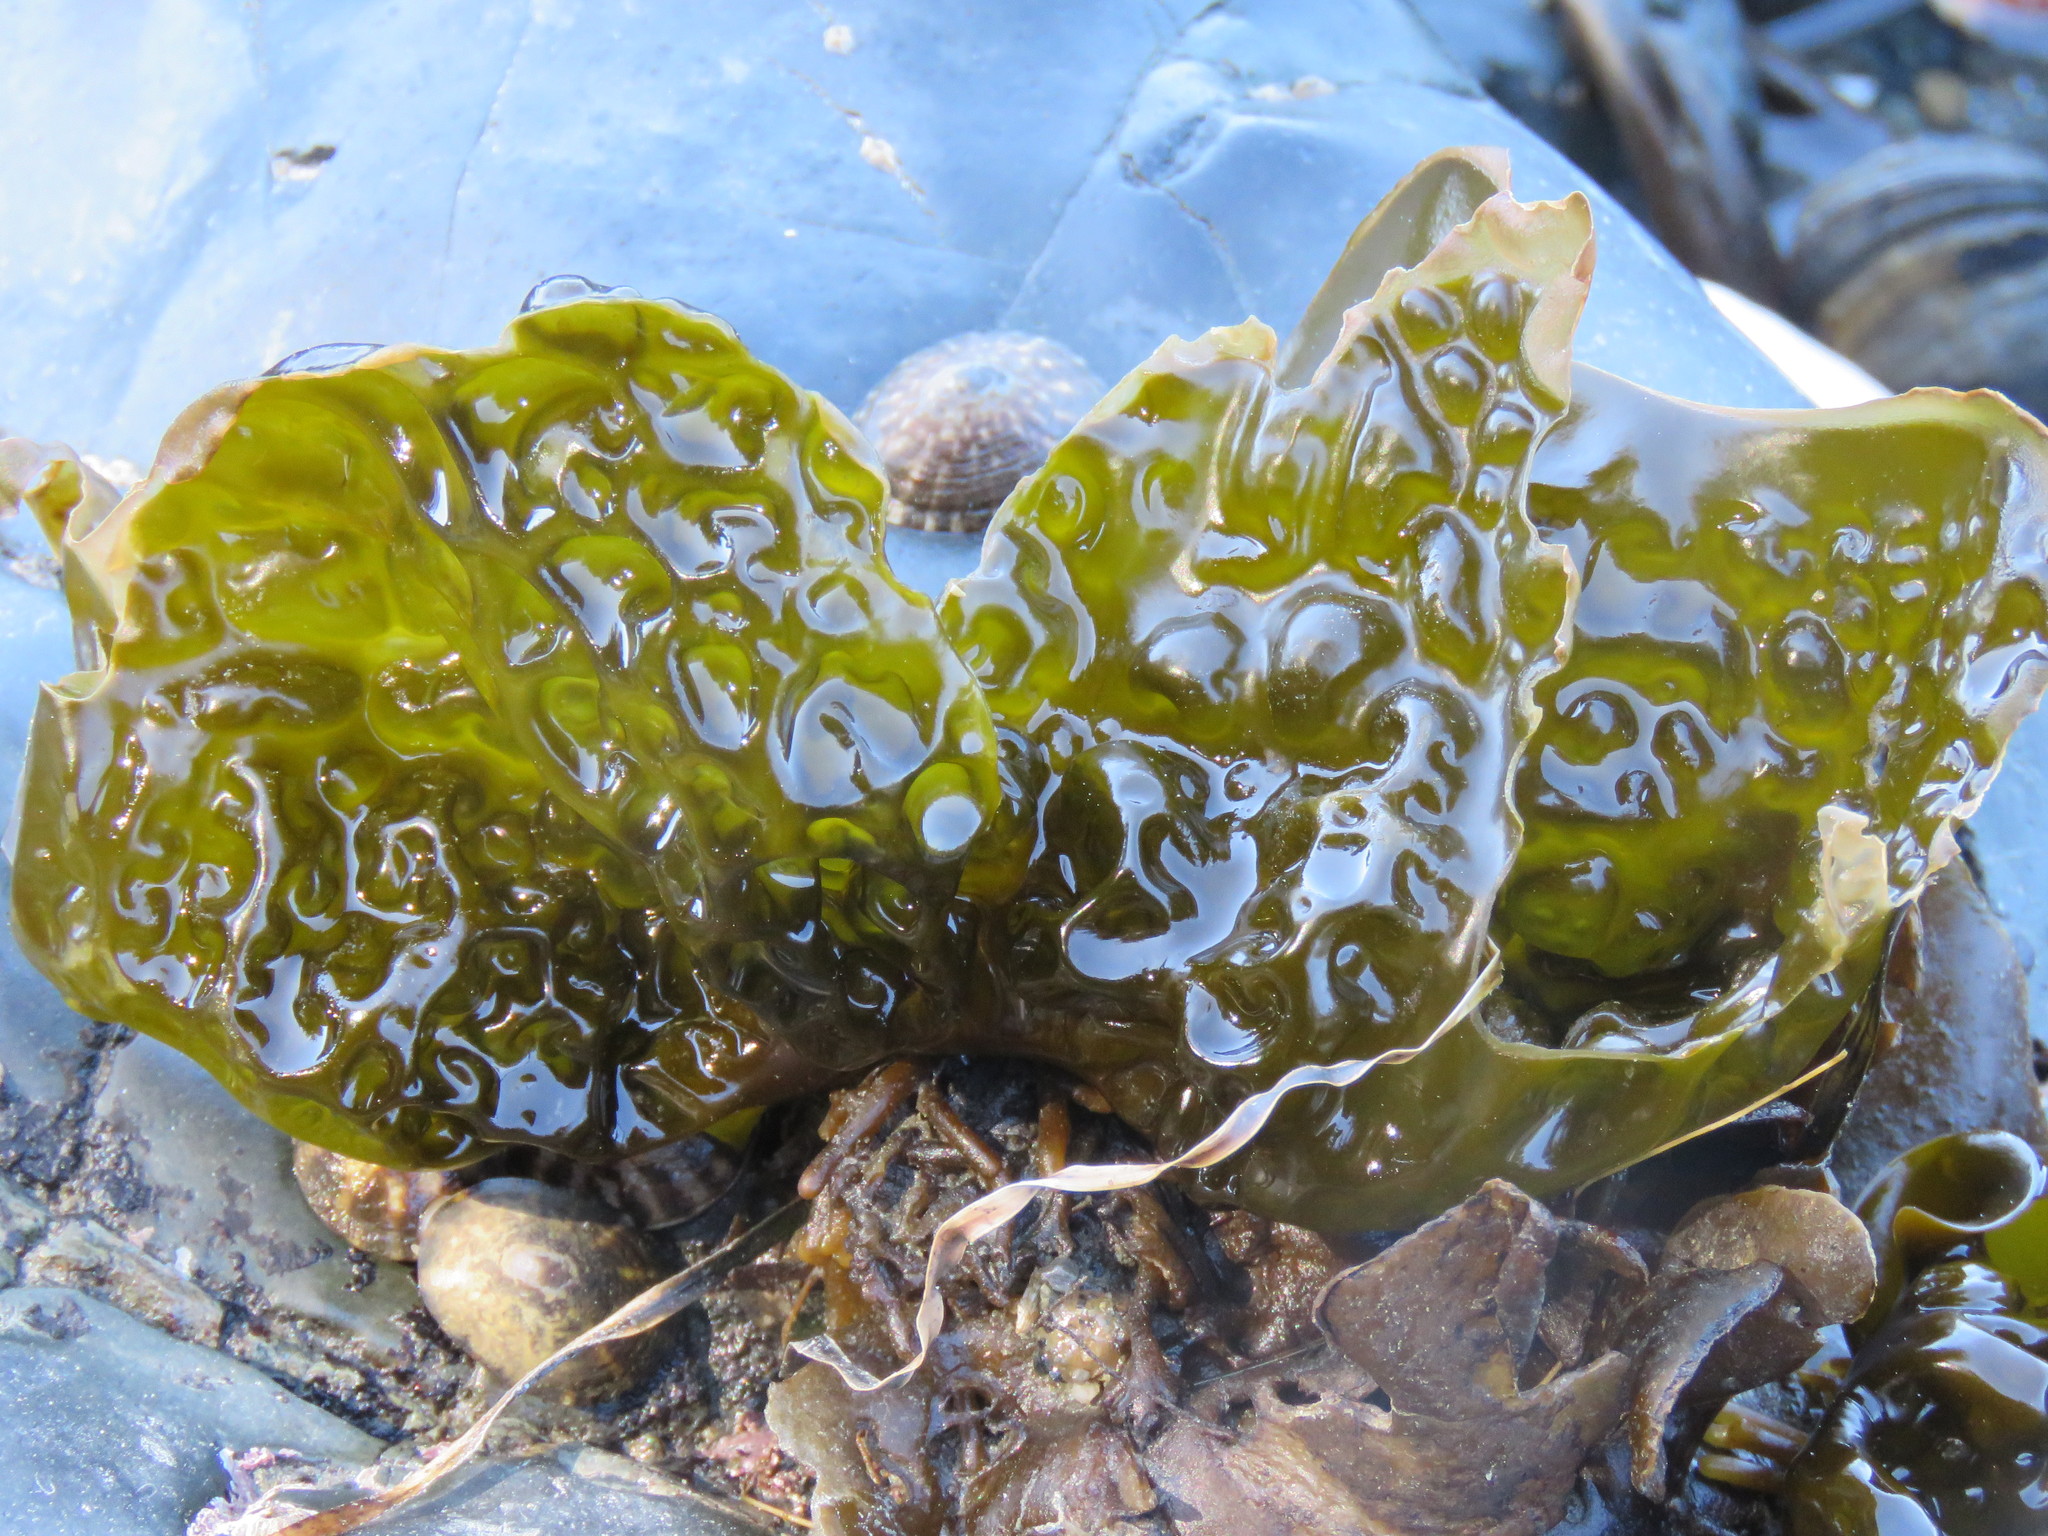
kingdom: Chromista
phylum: Ochrophyta
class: Phaeophyceae
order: Laminariales
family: Laminariaceae
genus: Hedophyllum
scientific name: Hedophyllum sessile
